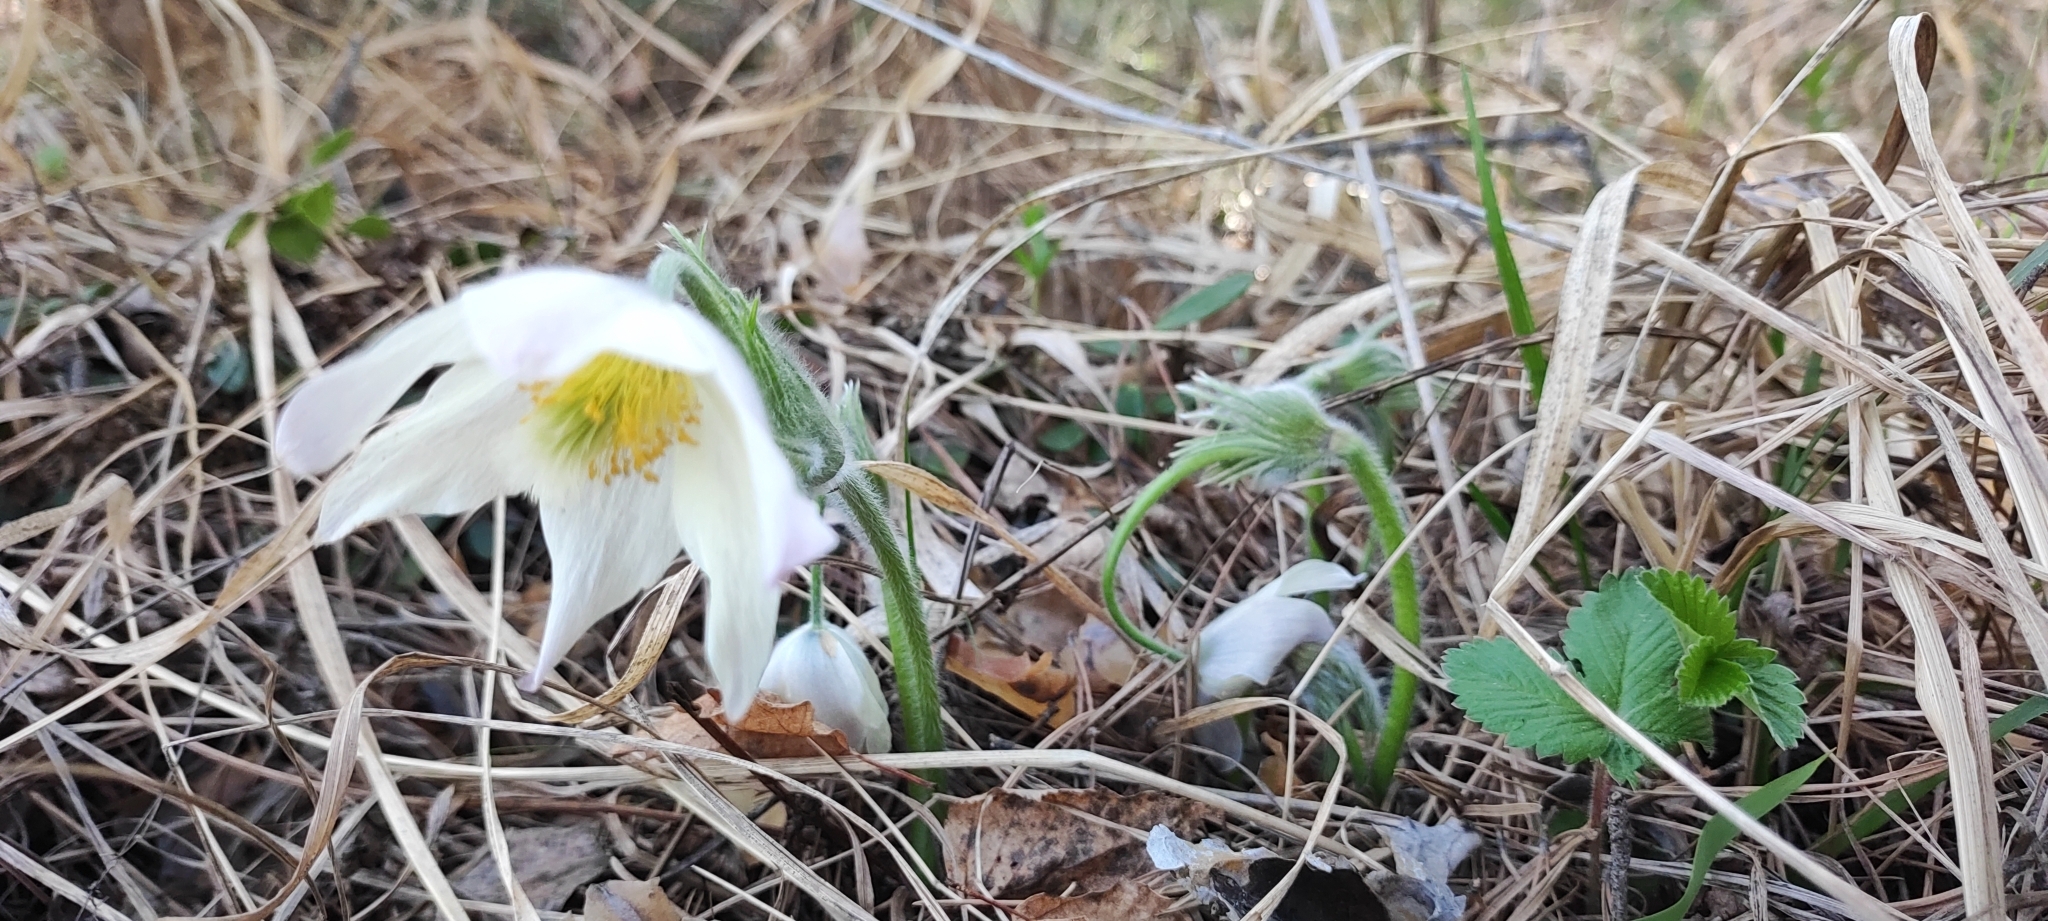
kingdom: Plantae
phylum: Tracheophyta
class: Magnoliopsida
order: Ranunculales
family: Ranunculaceae
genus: Pulsatilla
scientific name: Pulsatilla patens
